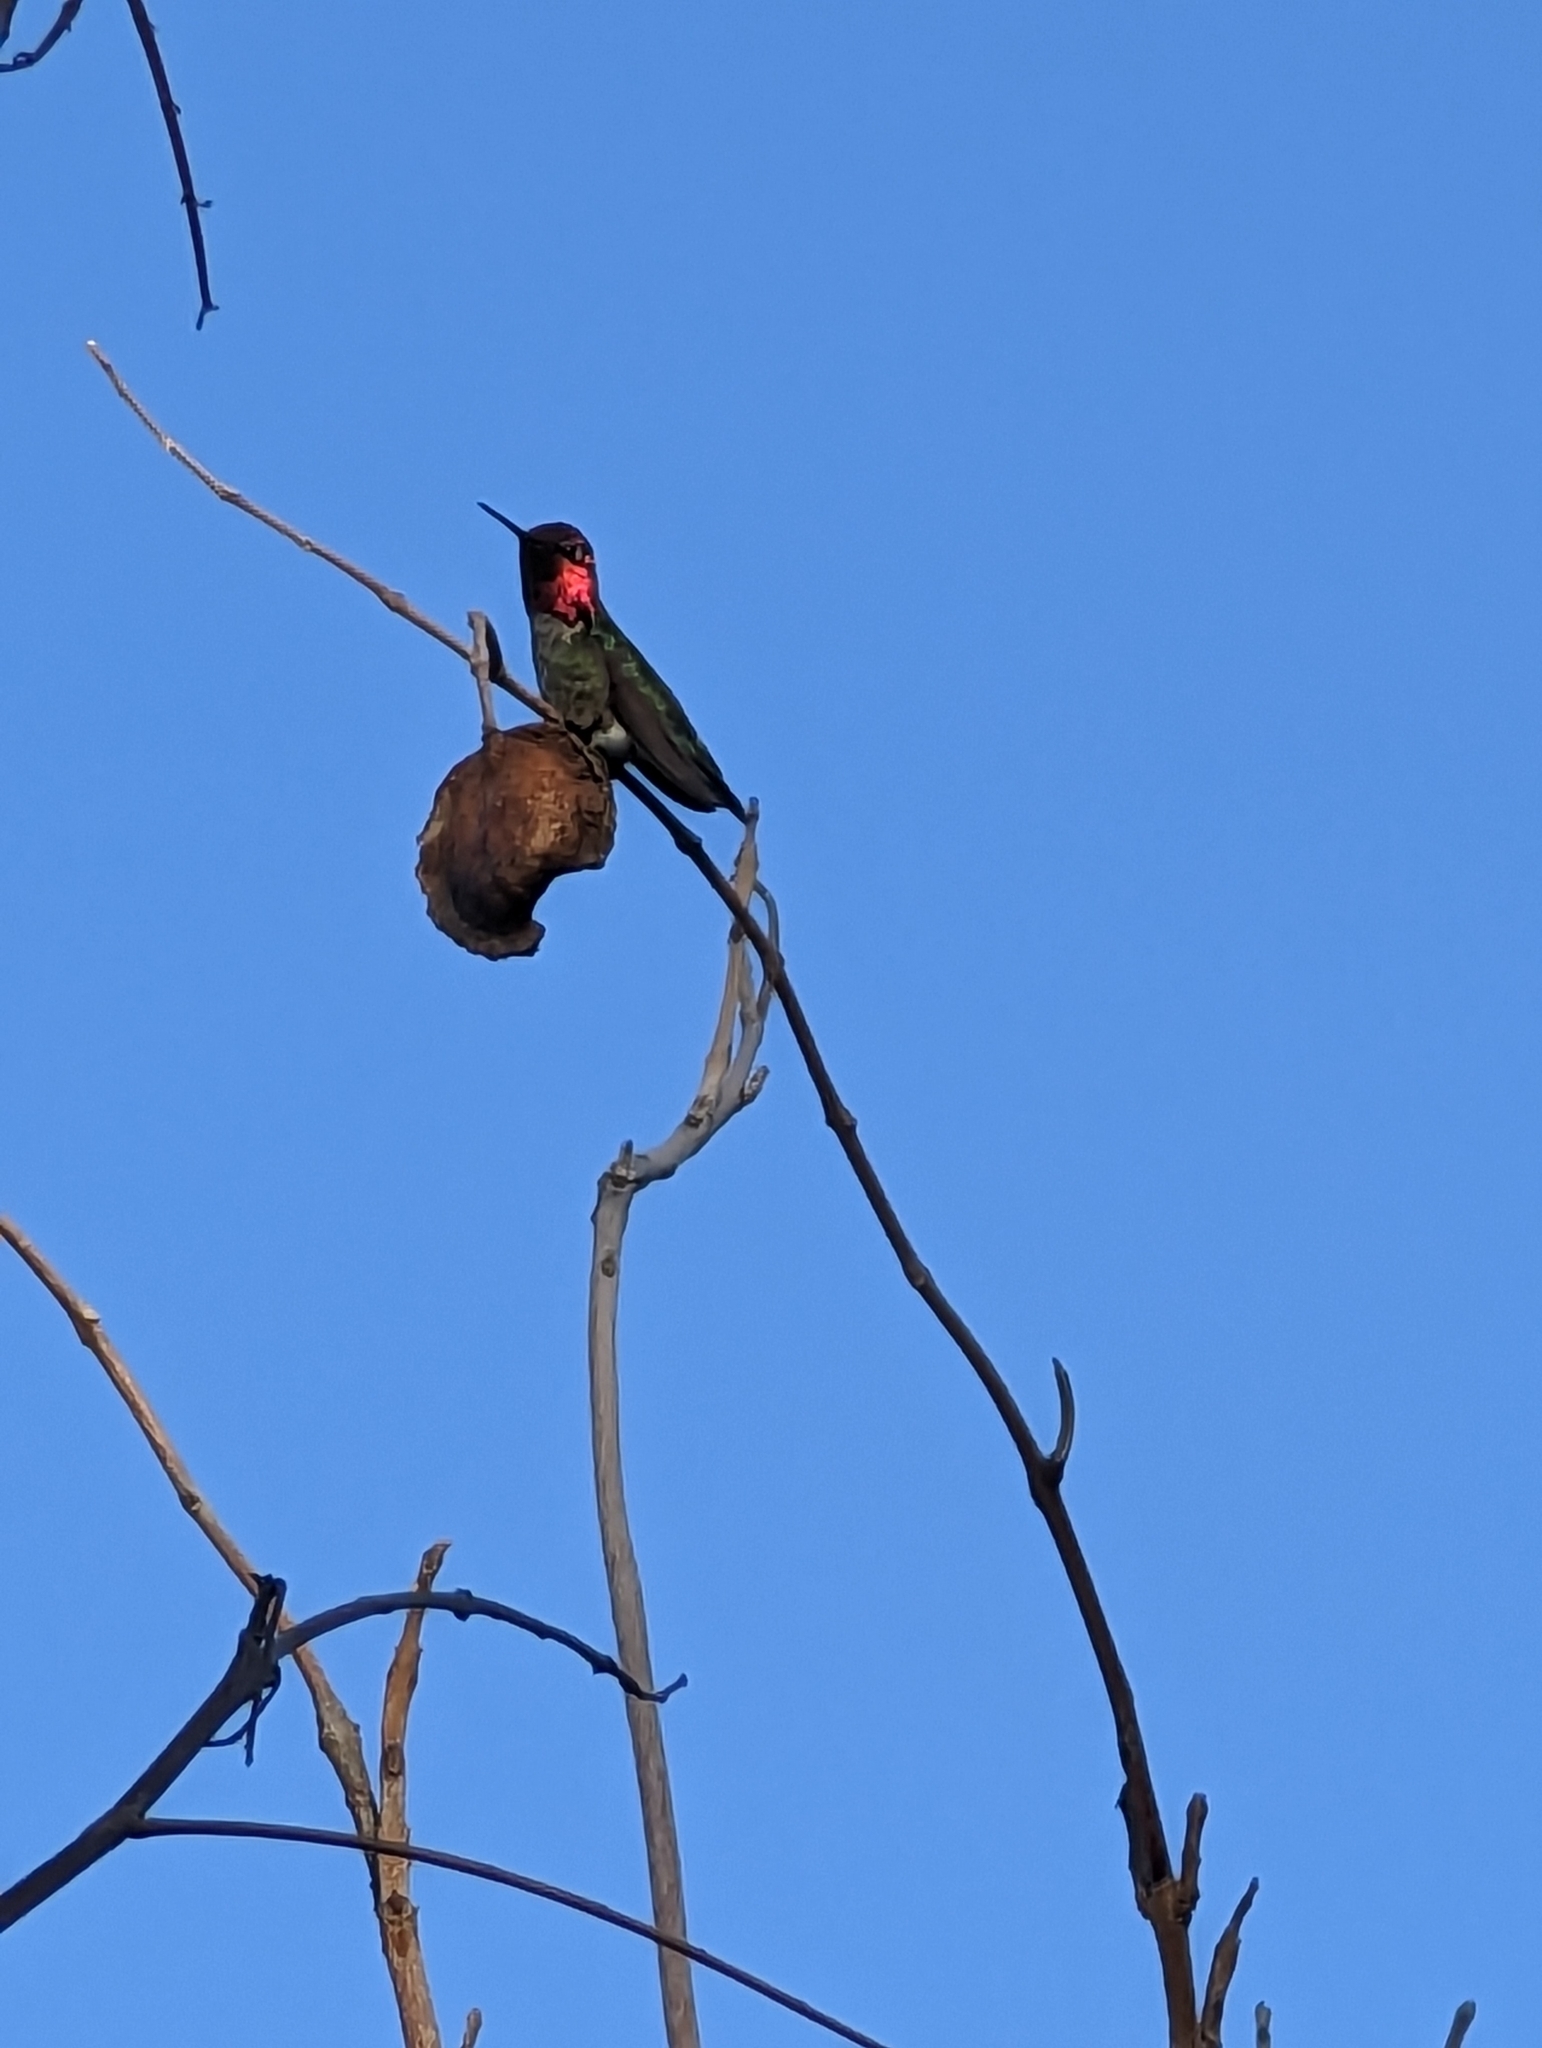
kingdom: Animalia
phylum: Chordata
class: Aves
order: Apodiformes
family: Trochilidae
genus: Calypte
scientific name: Calypte anna
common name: Anna's hummingbird
